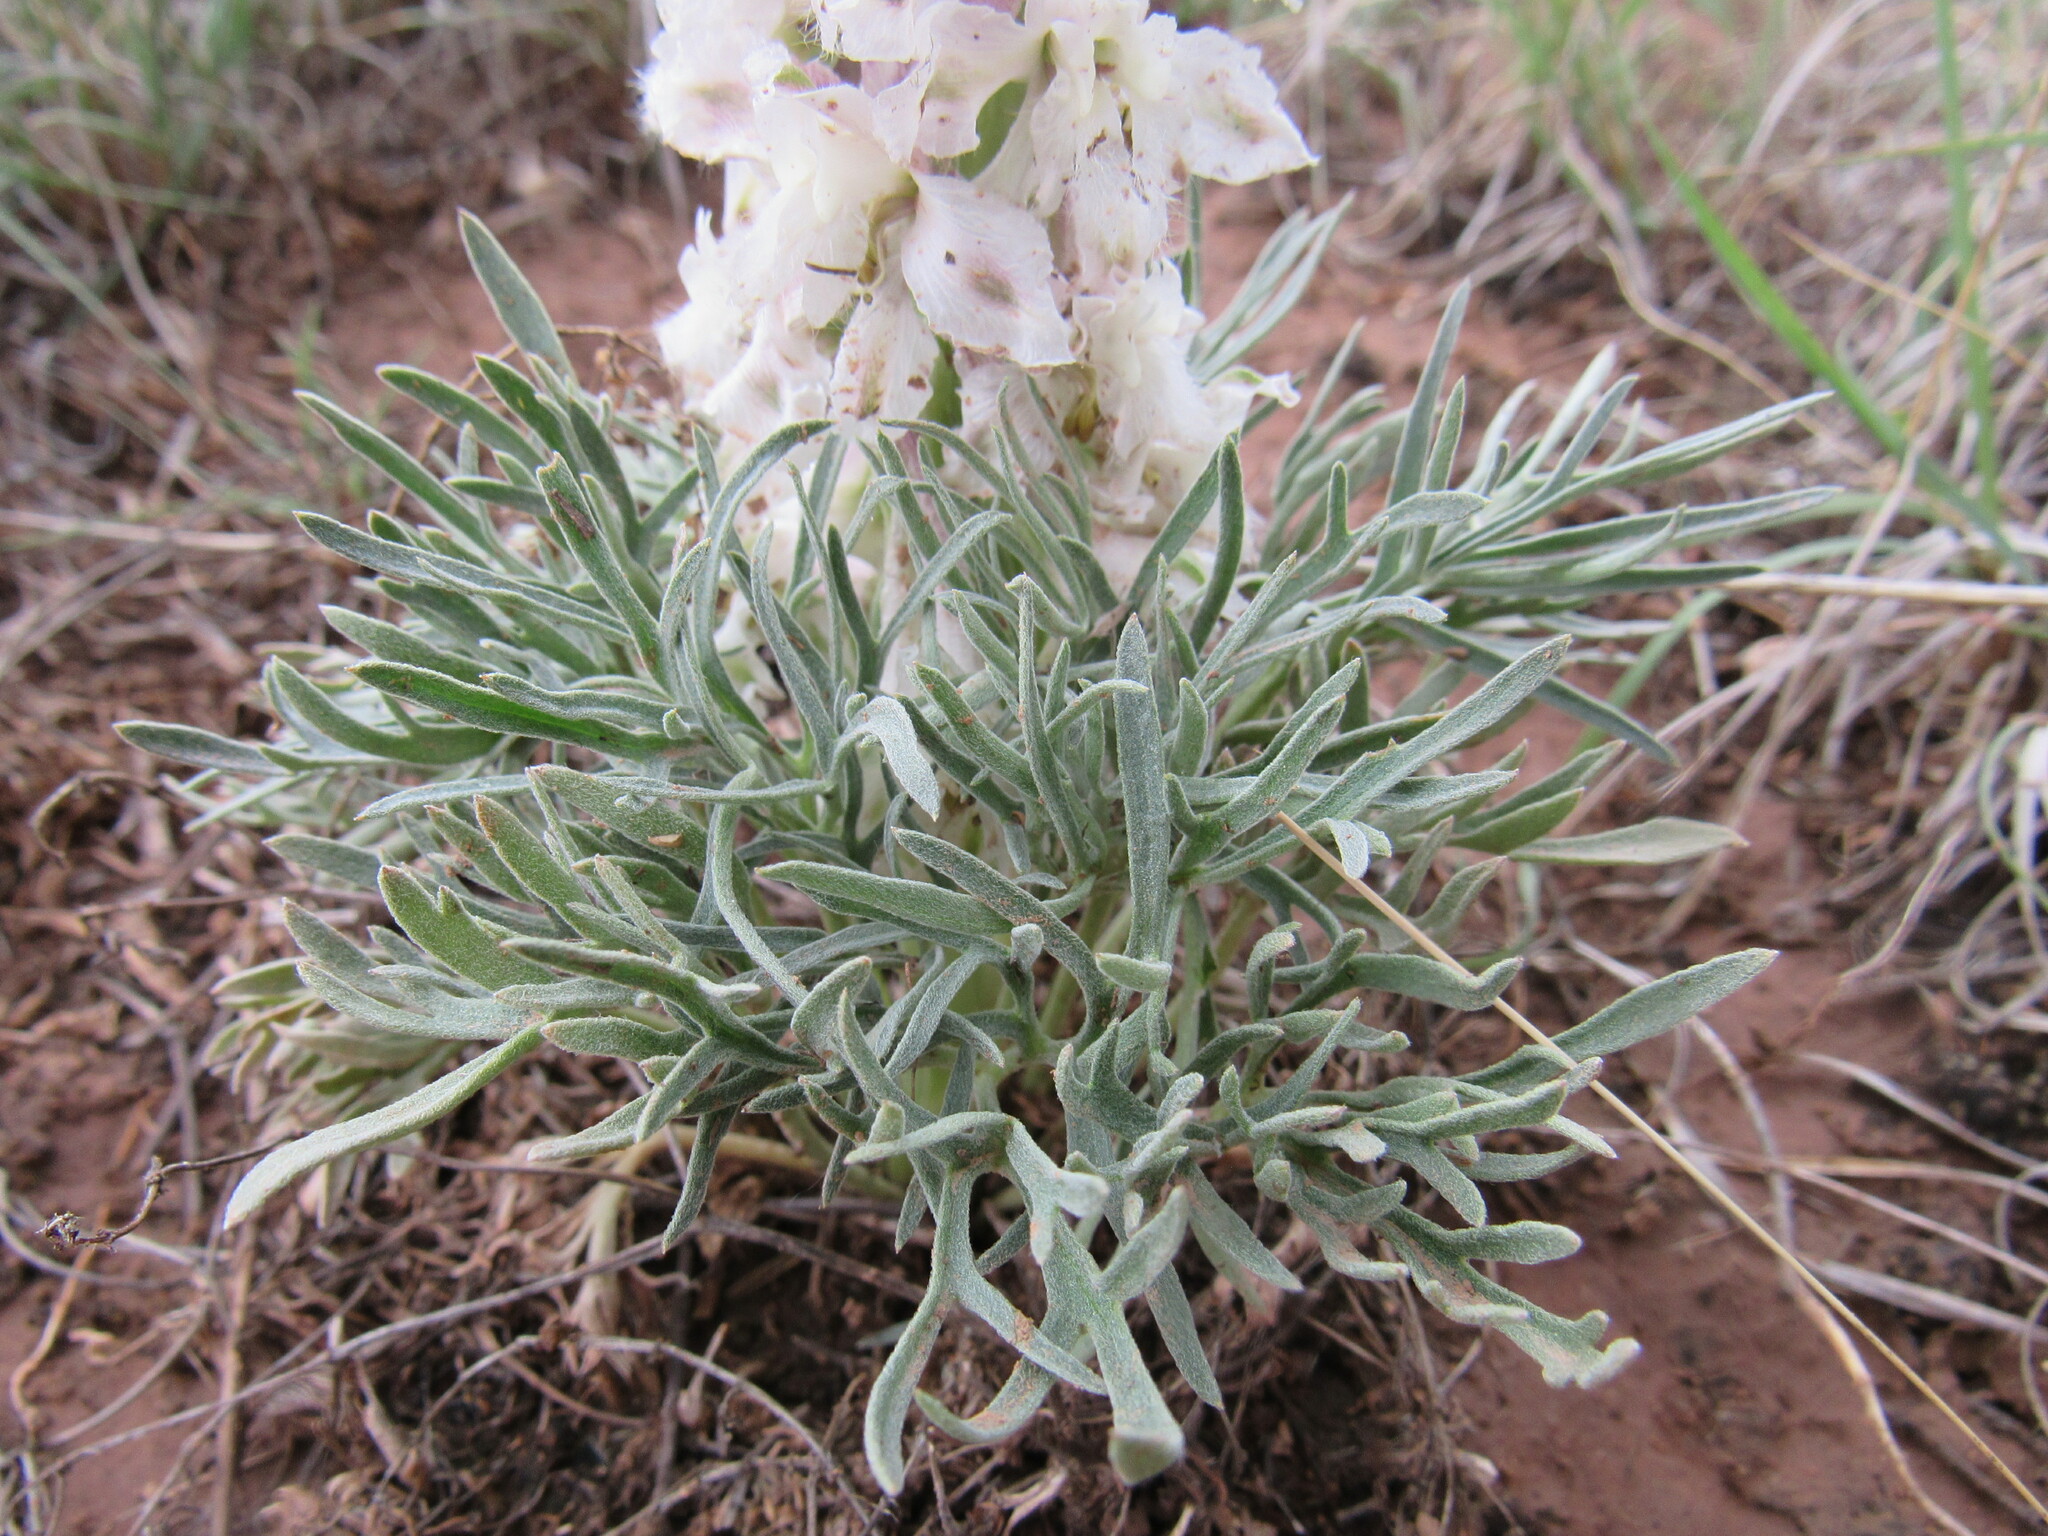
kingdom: Plantae
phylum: Tracheophyta
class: Magnoliopsida
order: Ranunculales
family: Ranunculaceae
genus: Delphinium
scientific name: Delphinium wootonii
